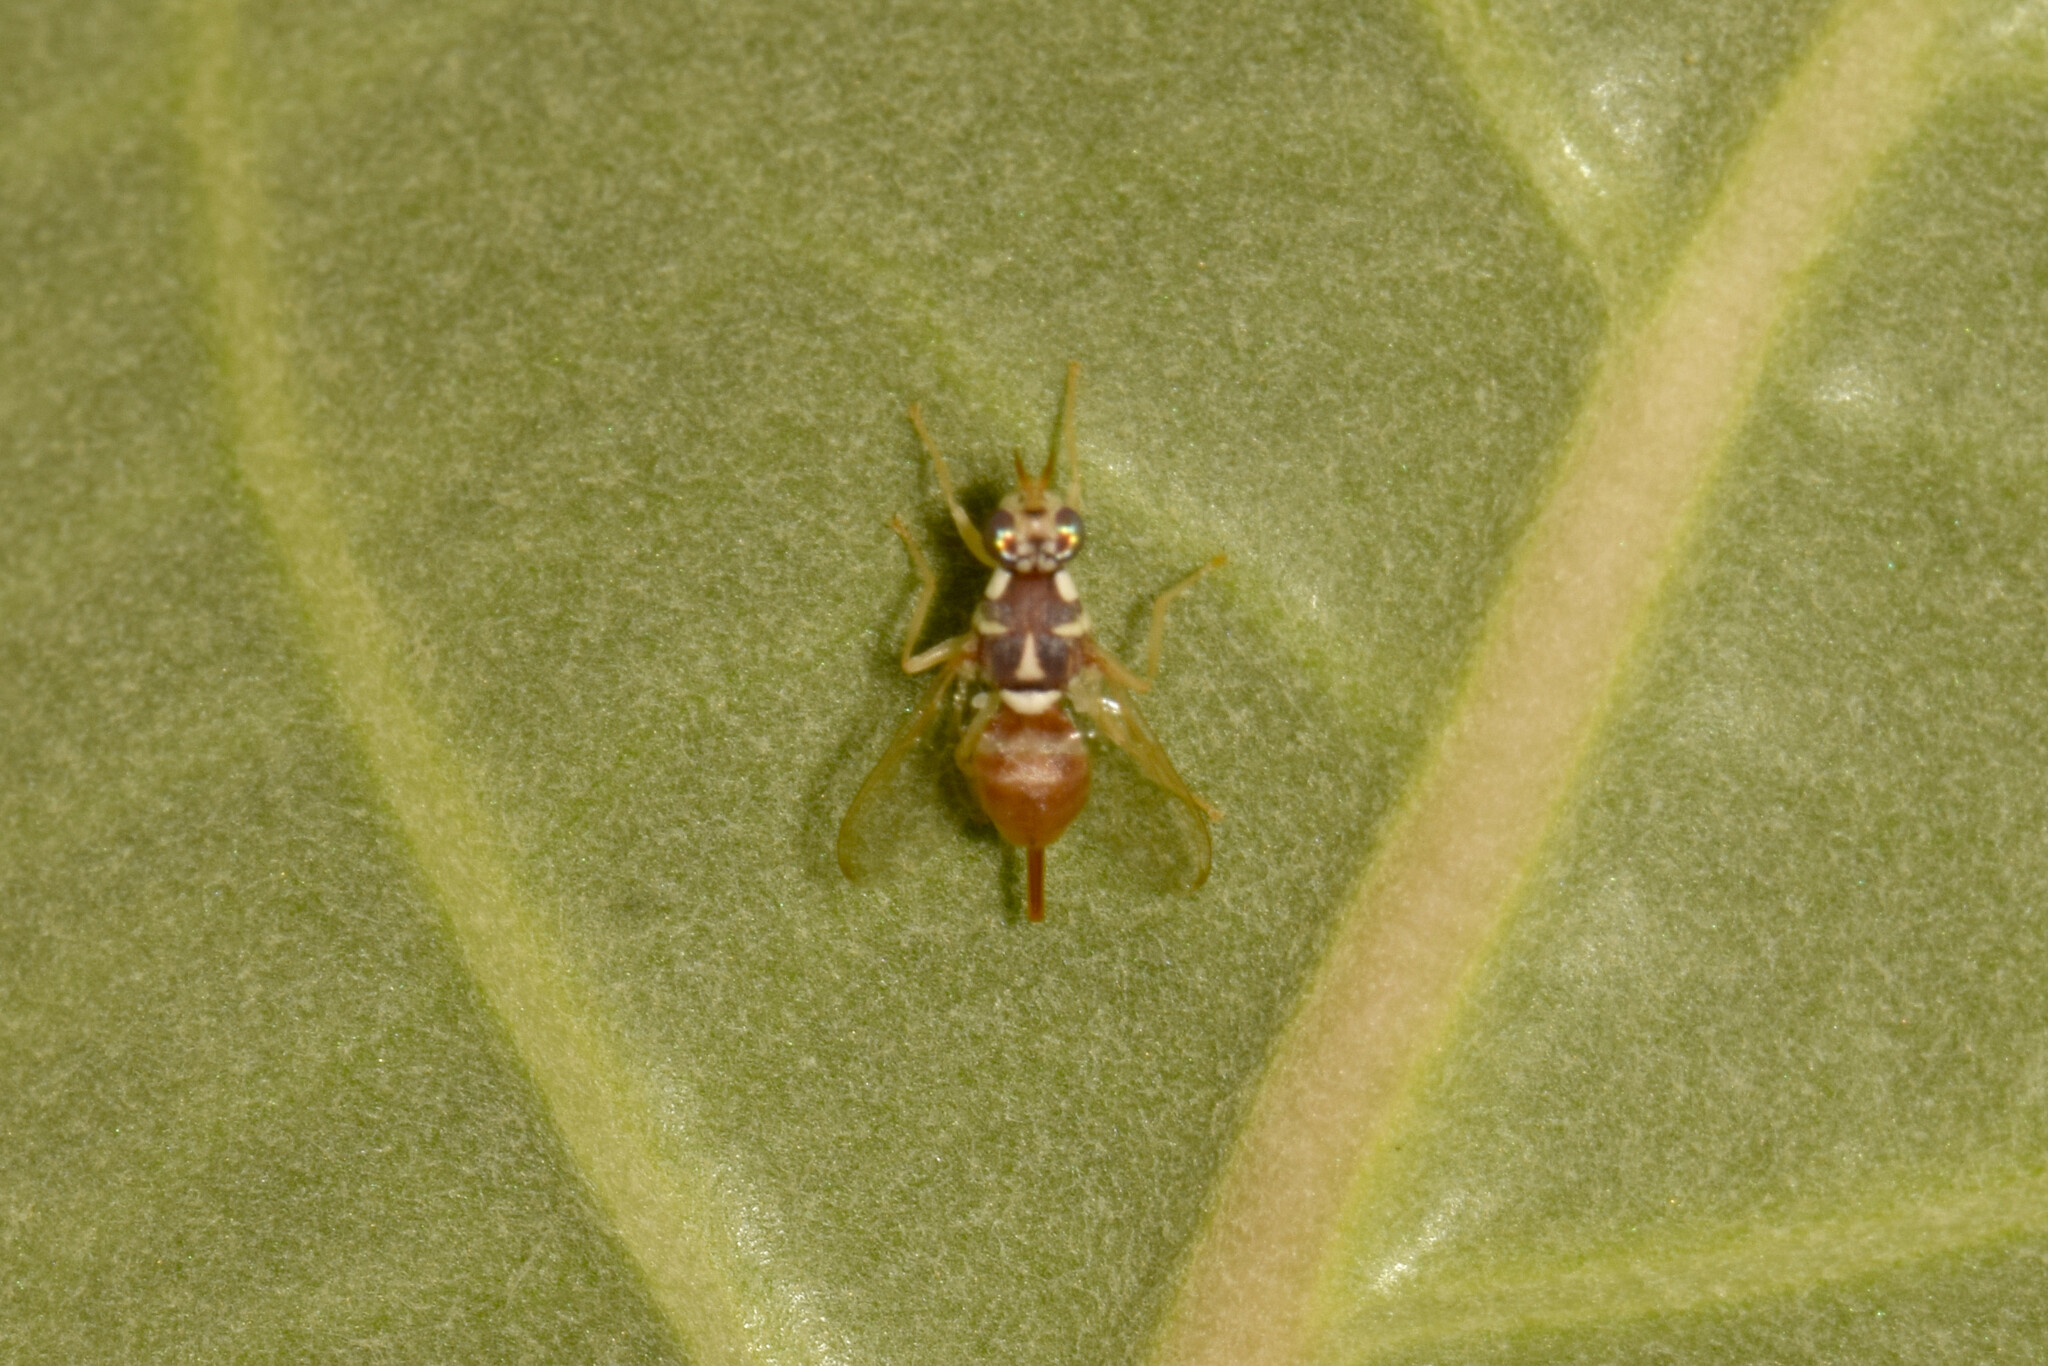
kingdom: Animalia
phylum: Arthropoda
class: Insecta
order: Diptera
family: Tephritidae
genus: Dacus
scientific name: Dacus persicus
